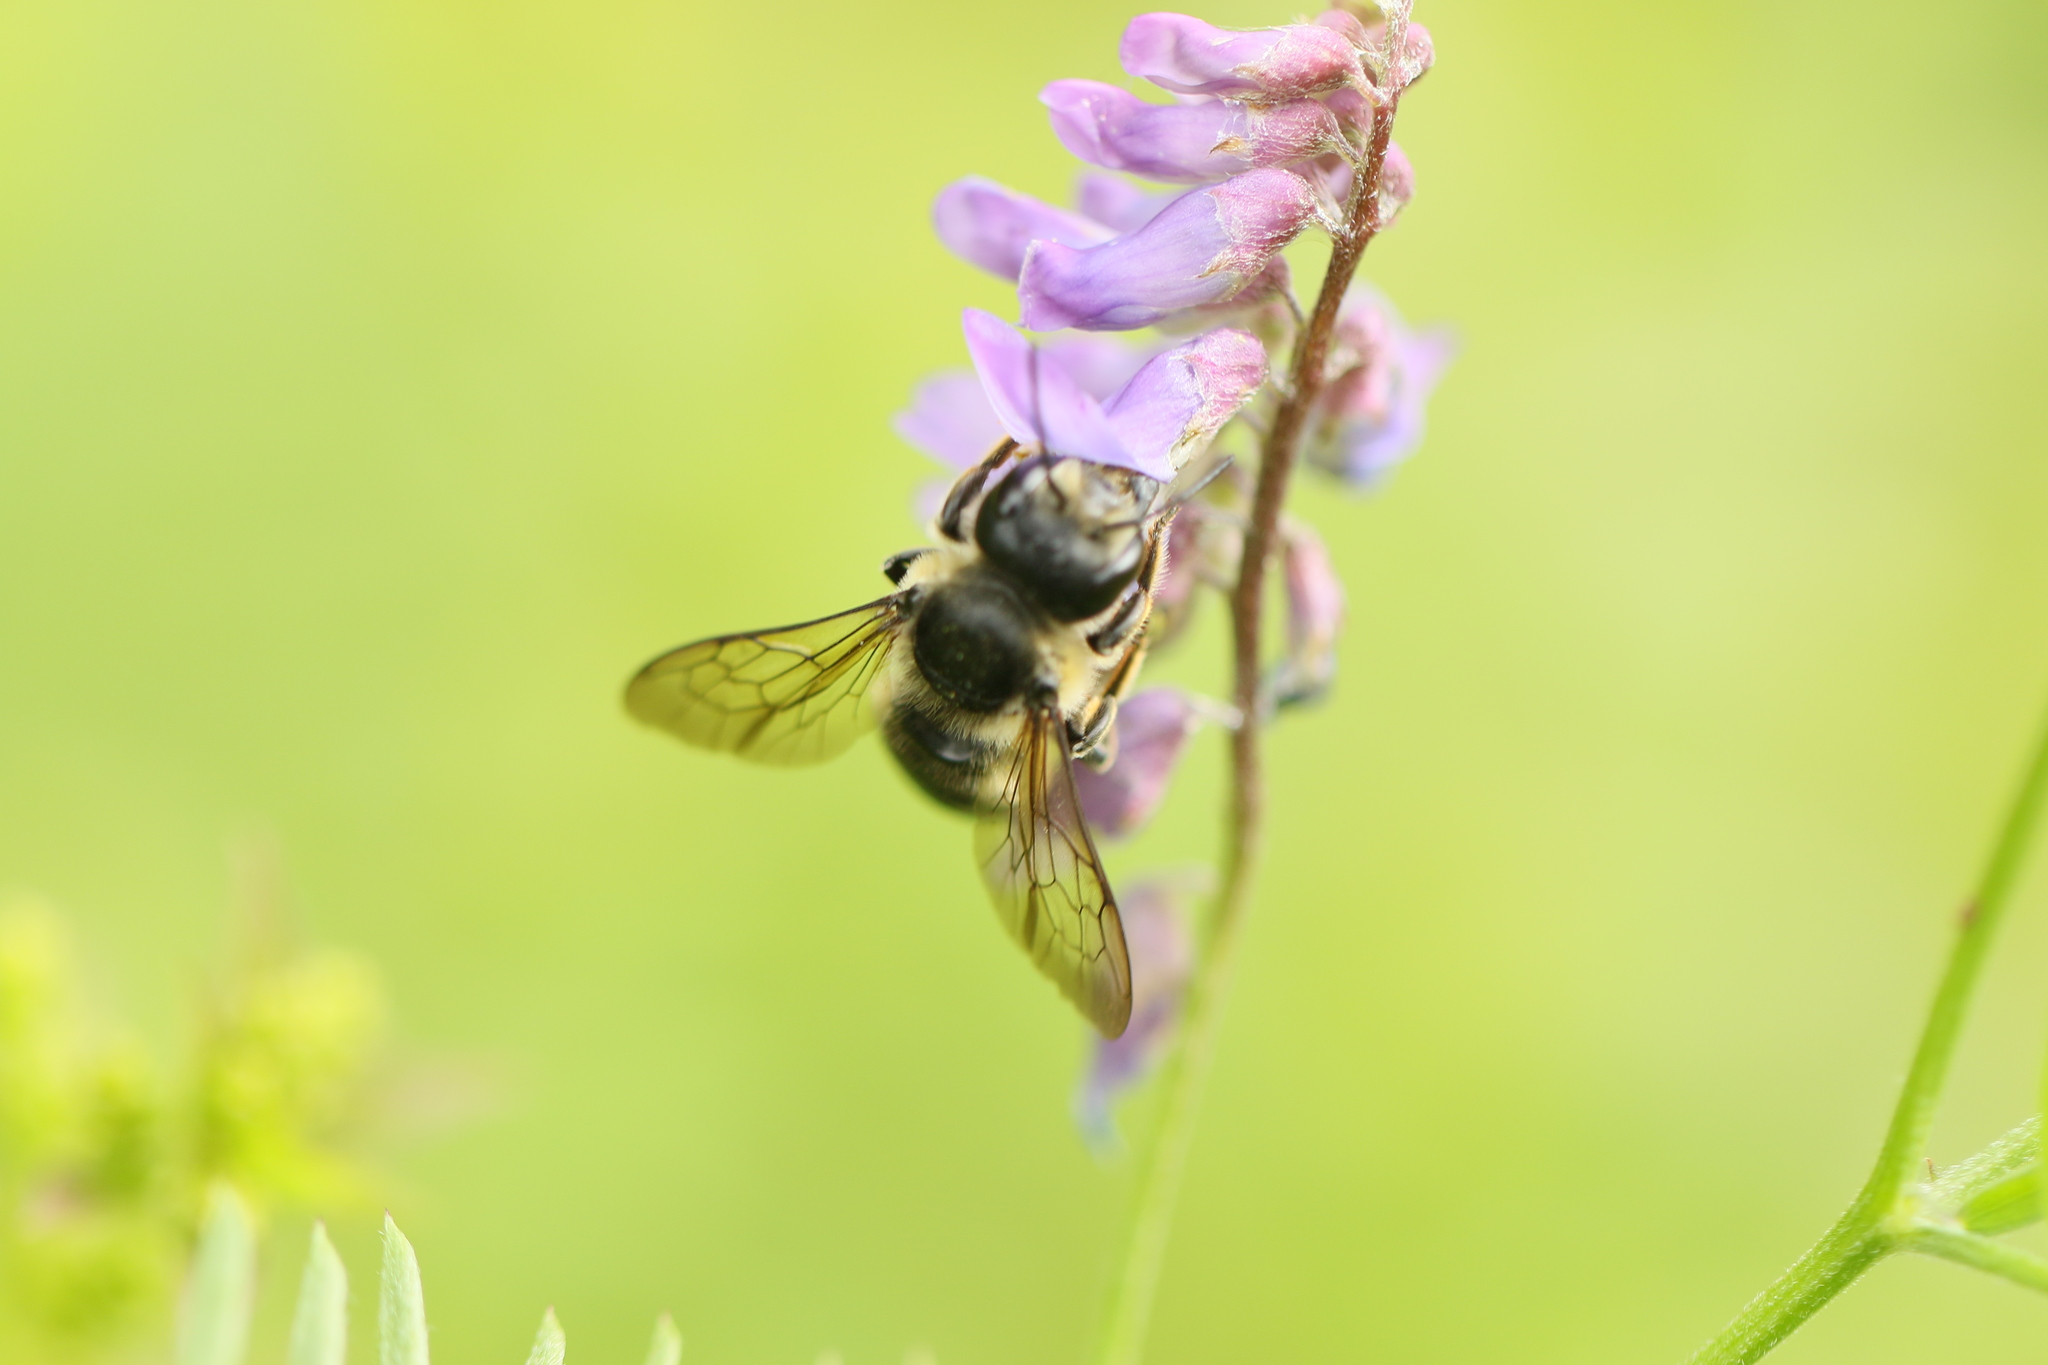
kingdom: Animalia
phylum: Arthropoda
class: Insecta
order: Hymenoptera
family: Megachilidae
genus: Megachile
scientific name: Megachile inermis
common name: Unarmed leafcutter bee
